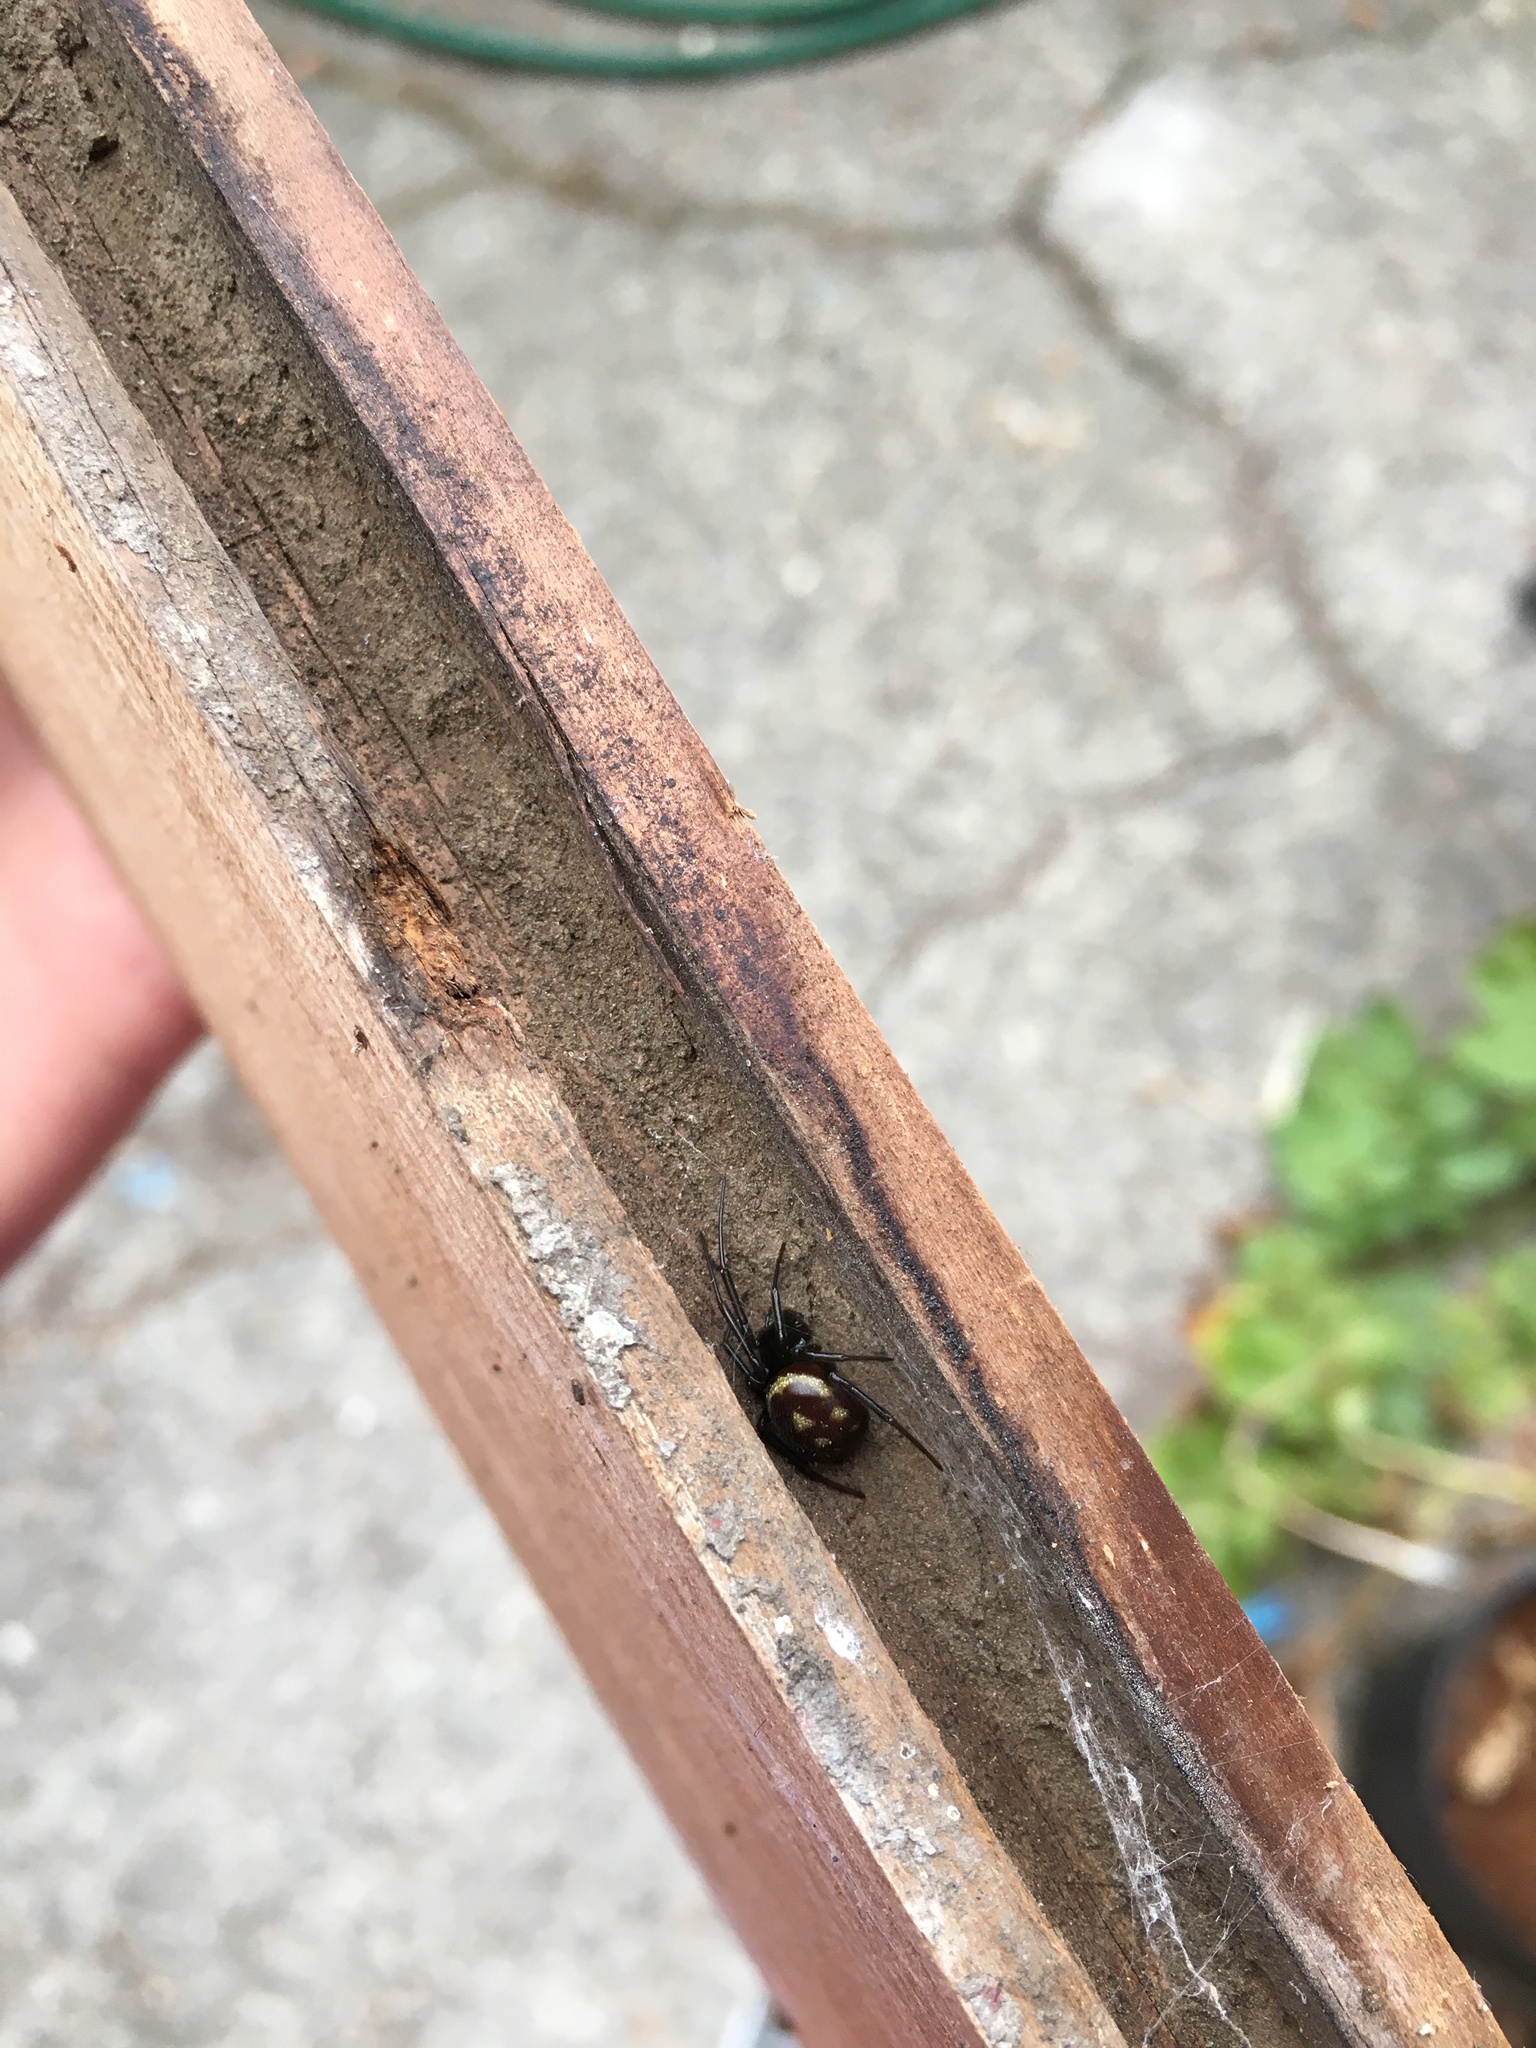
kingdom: Animalia
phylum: Arthropoda
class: Arachnida
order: Araneae
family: Theridiidae
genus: Steatoda
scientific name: Steatoda grossa
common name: False black widow
